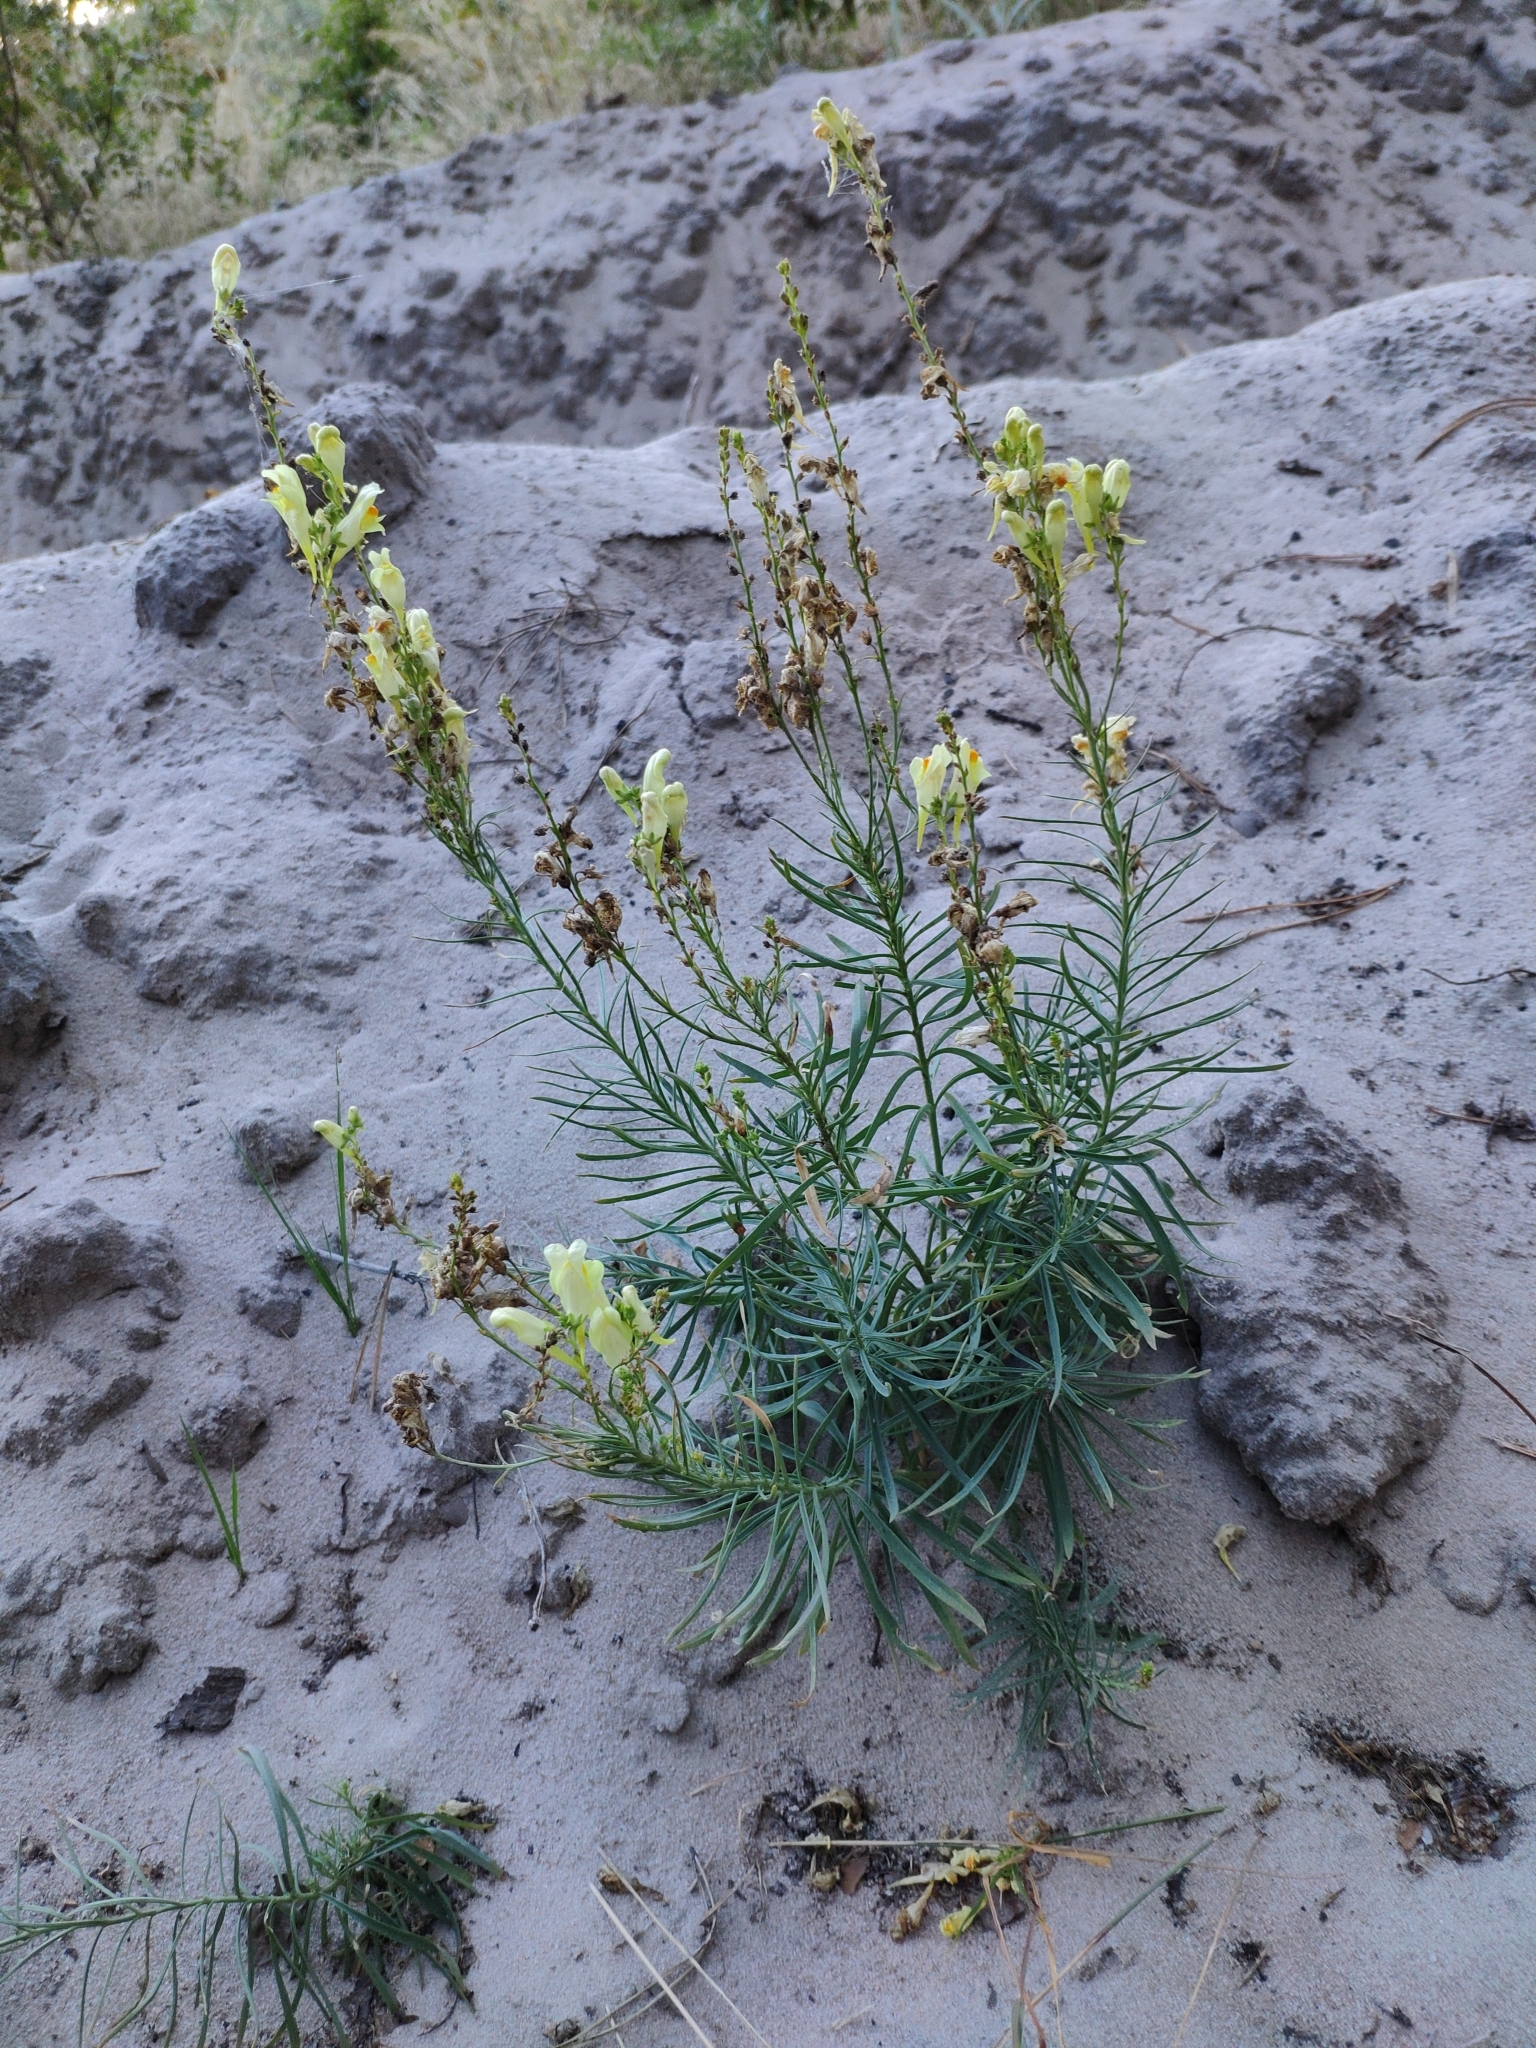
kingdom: Plantae
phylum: Tracheophyta
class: Magnoliopsida
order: Lamiales
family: Plantaginaceae
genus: Linaria
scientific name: Linaria vulgaris
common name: Butter and eggs
